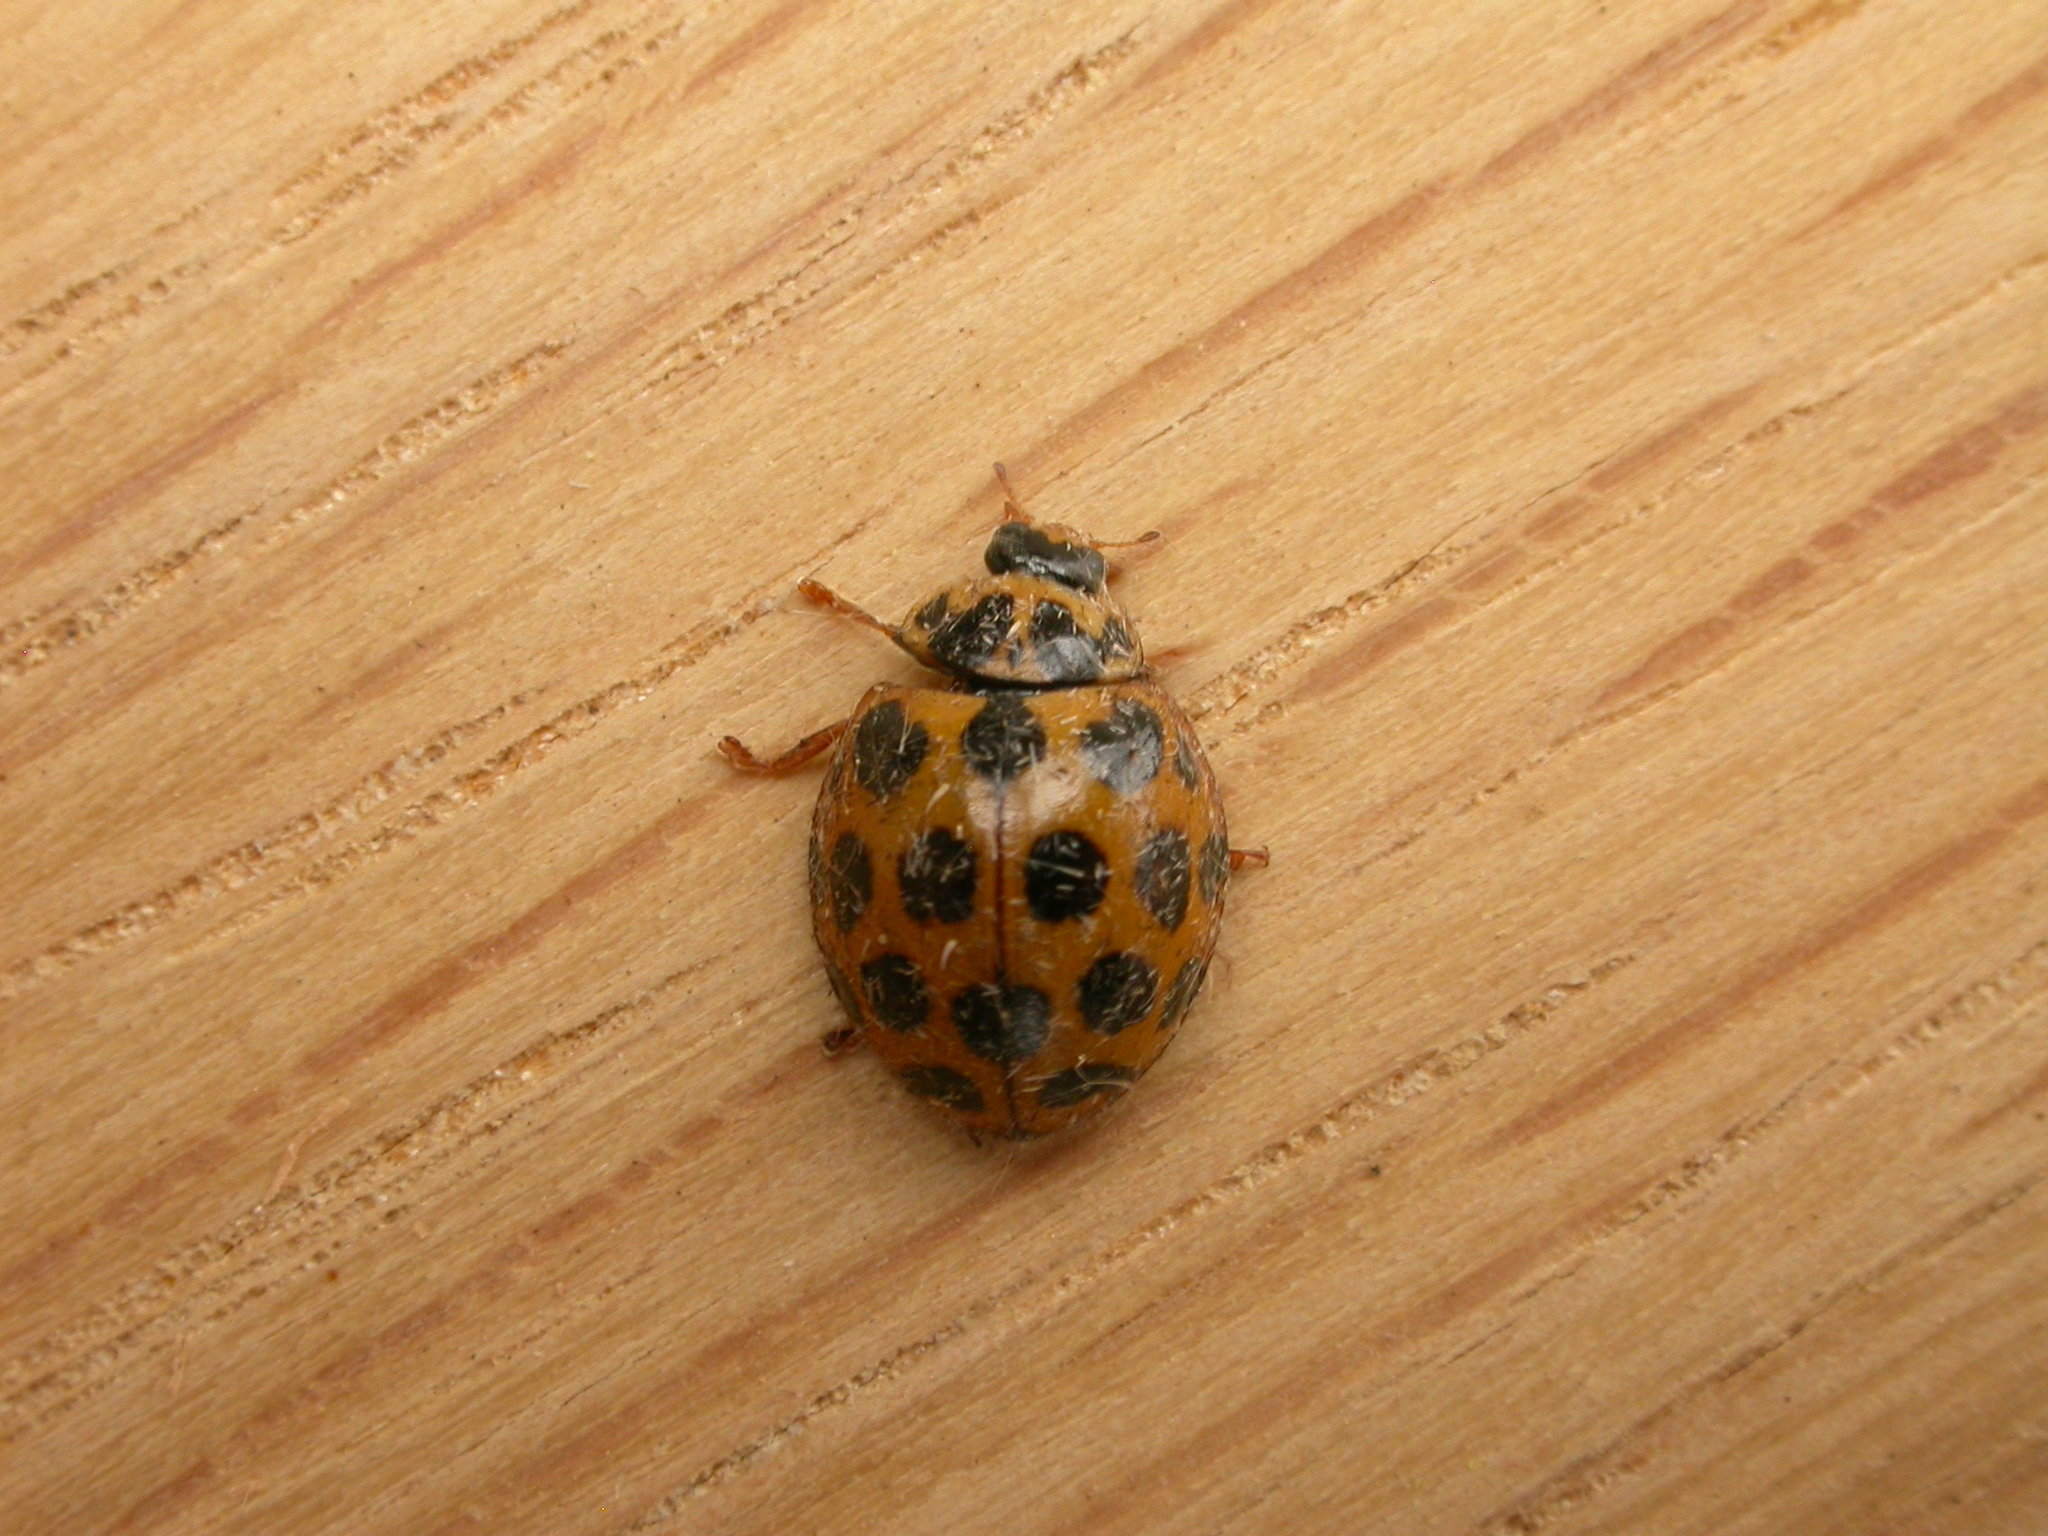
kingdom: Animalia
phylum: Arthropoda
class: Insecta
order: Coleoptera
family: Coccinellidae
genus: Harmonia
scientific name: Harmonia conformis
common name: Common spotted ladybird beetle
